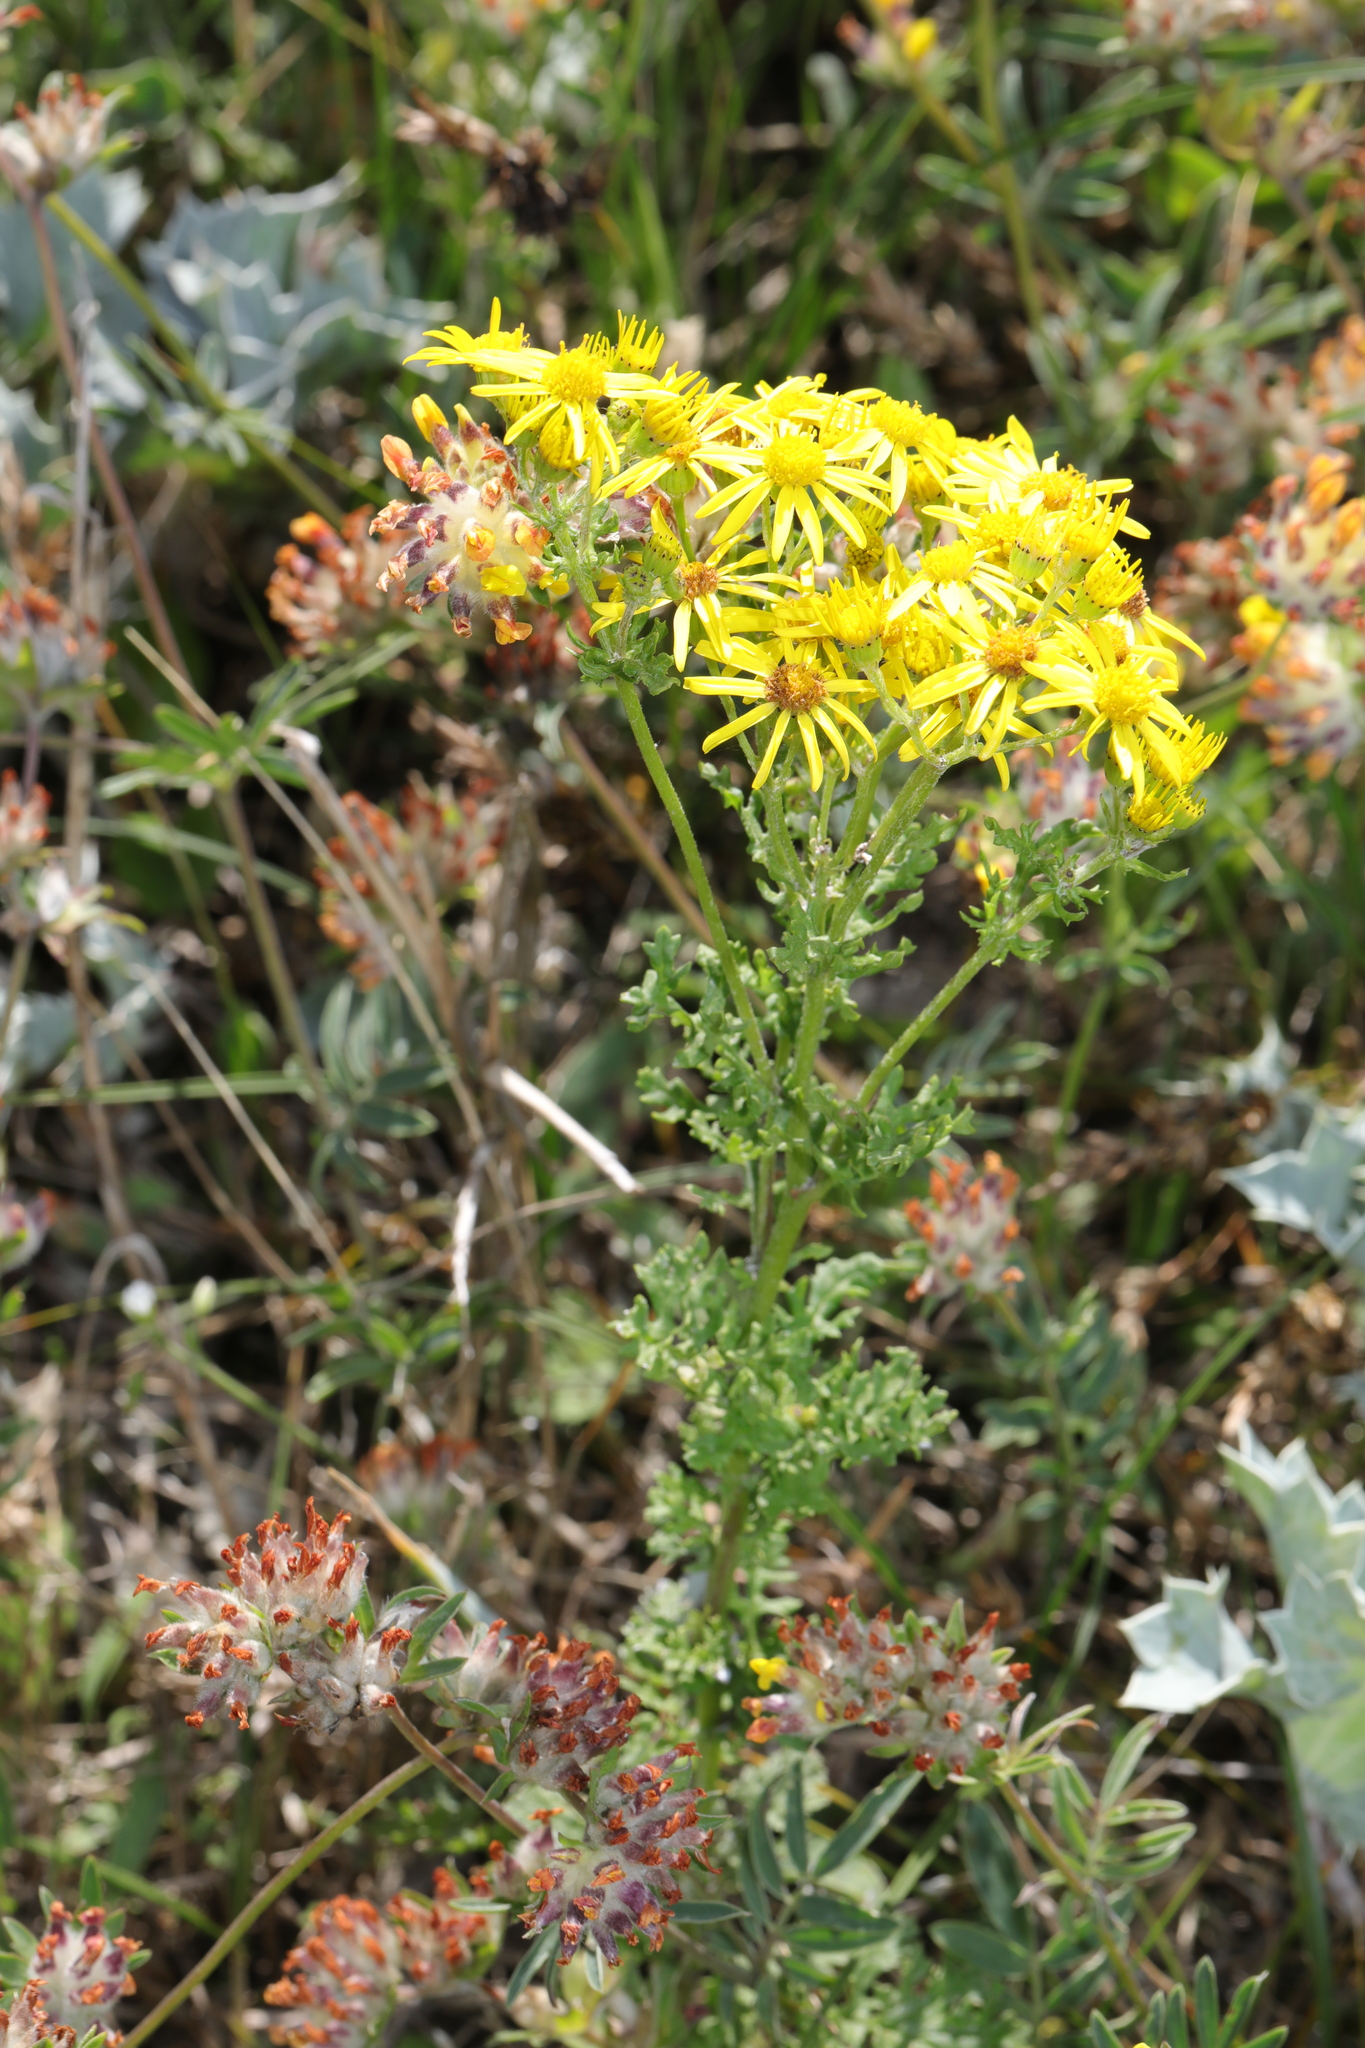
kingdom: Plantae
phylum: Tracheophyta
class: Magnoliopsida
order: Asterales
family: Asteraceae
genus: Jacobaea
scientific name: Jacobaea vulgaris
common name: Stinking willie
